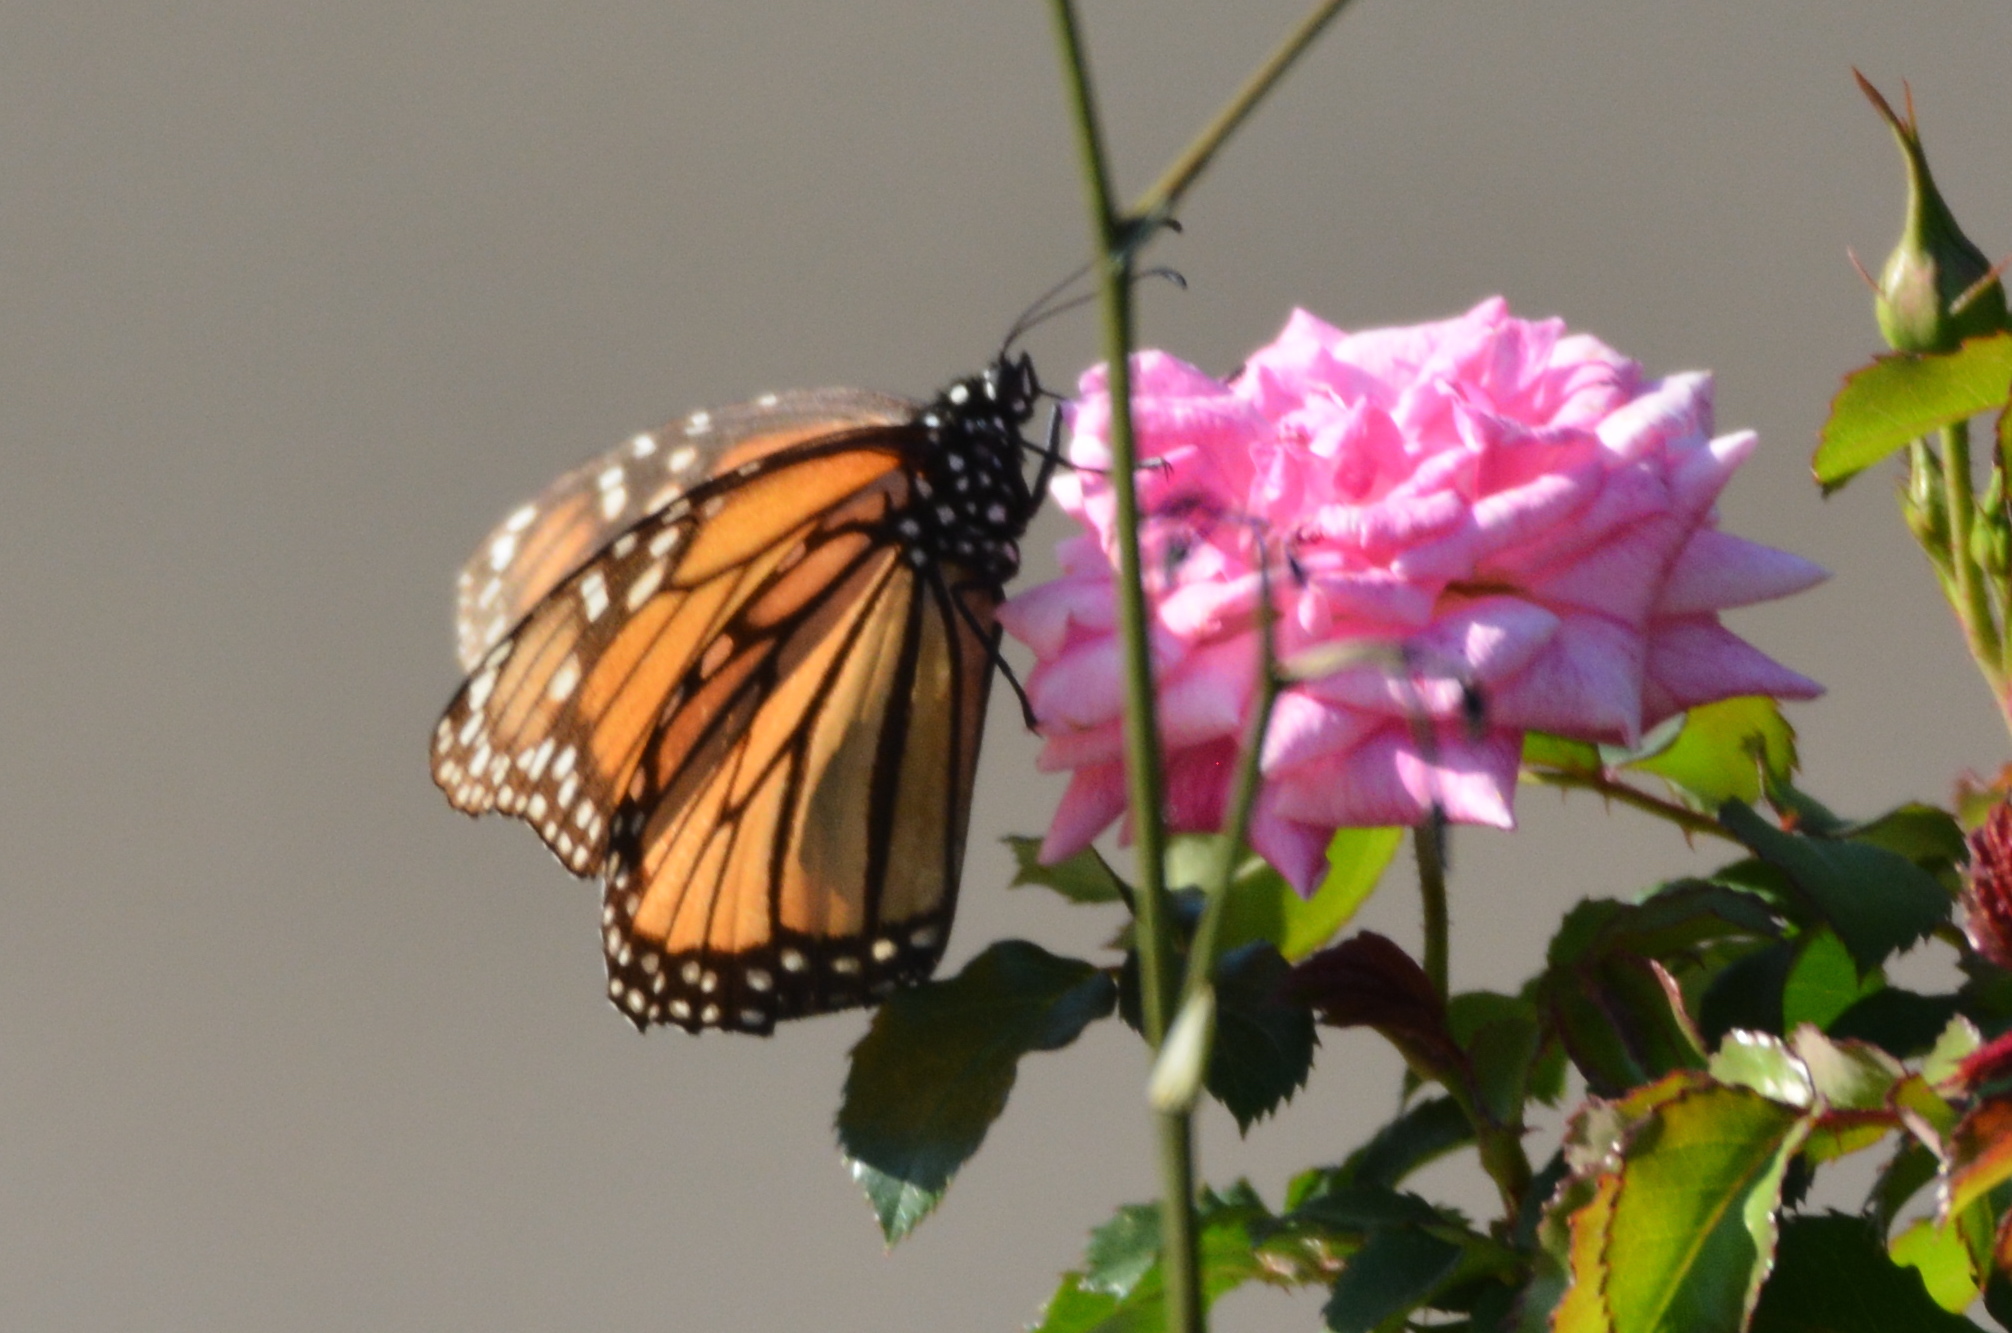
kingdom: Animalia
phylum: Arthropoda
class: Insecta
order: Lepidoptera
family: Nymphalidae
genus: Danaus
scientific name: Danaus plexippus
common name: Monarch
